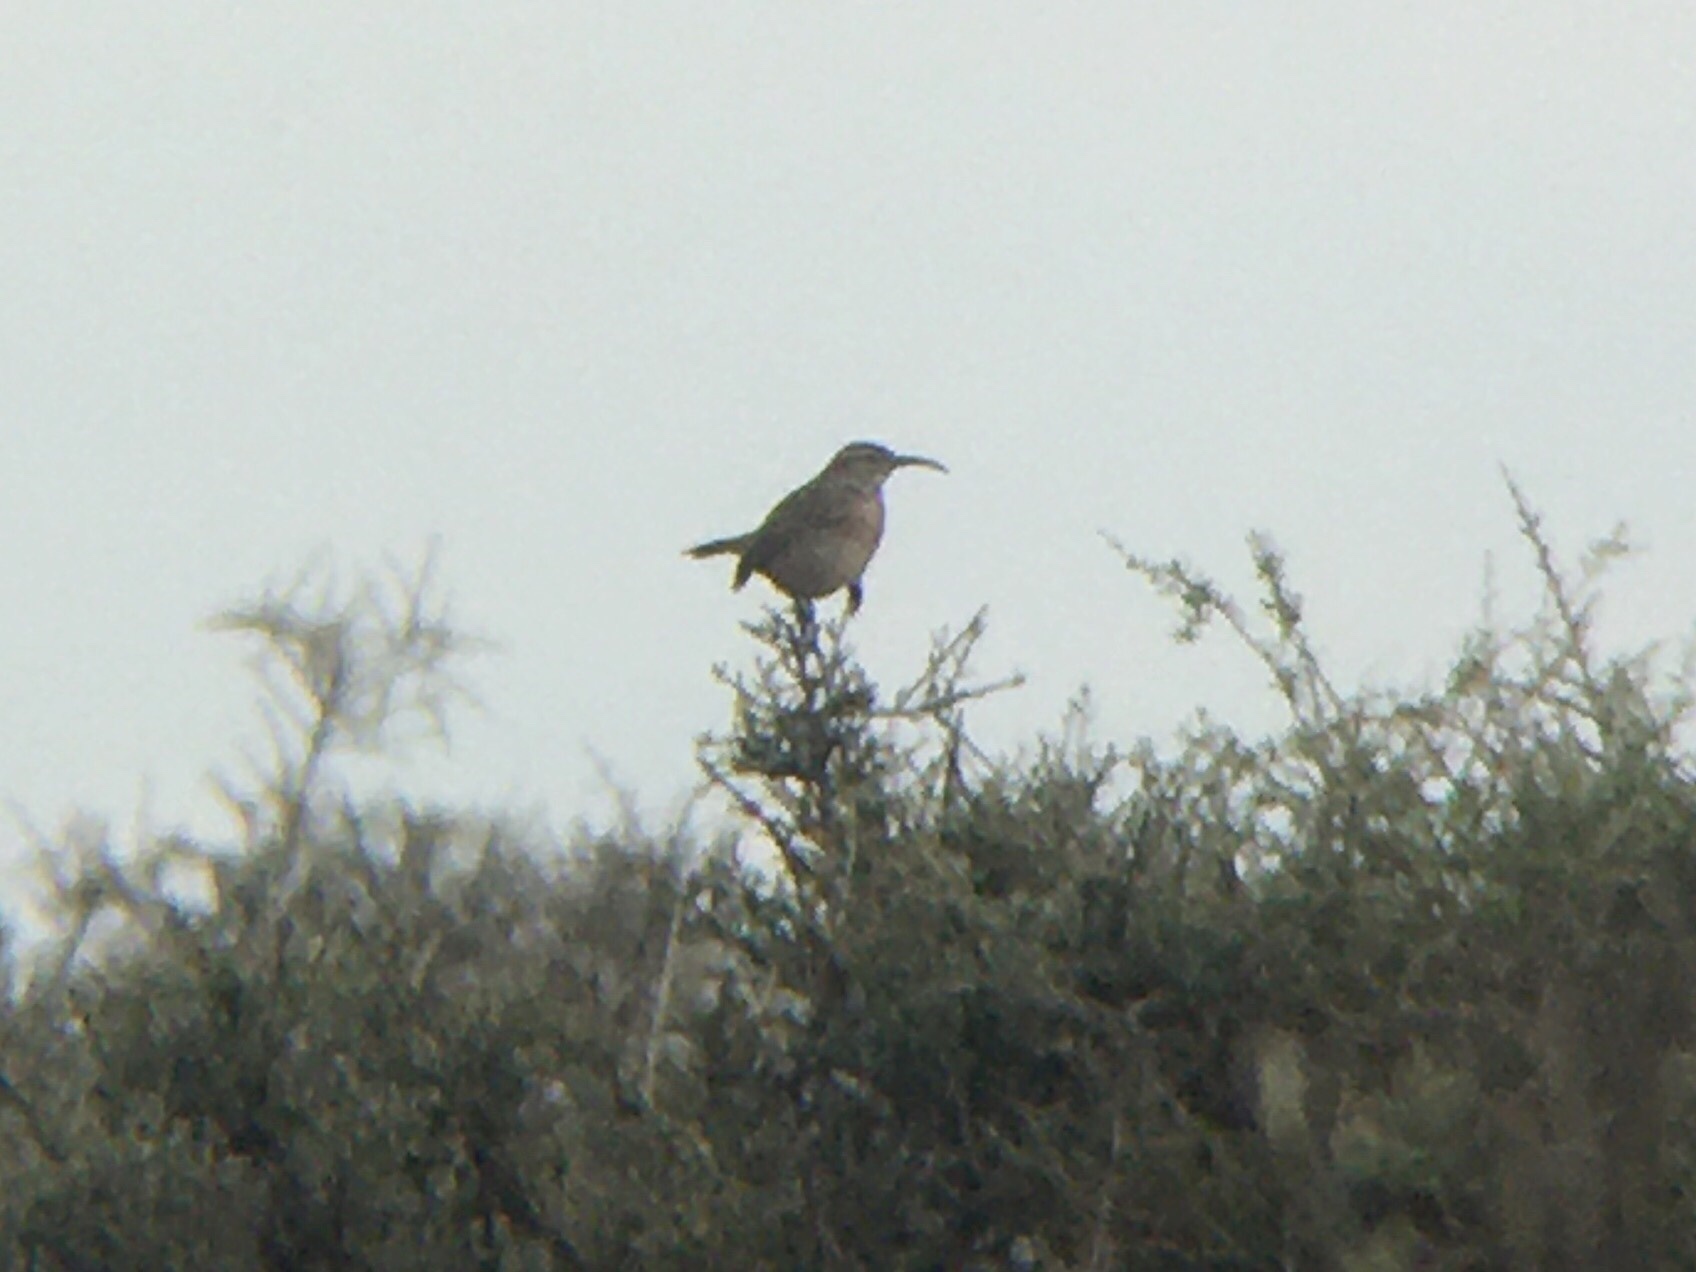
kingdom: Animalia
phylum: Chordata
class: Aves
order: Passeriformes
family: Furnariidae
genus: Upucerthia
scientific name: Upucerthia dumetaria
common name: Scale-throated earthcreeper
